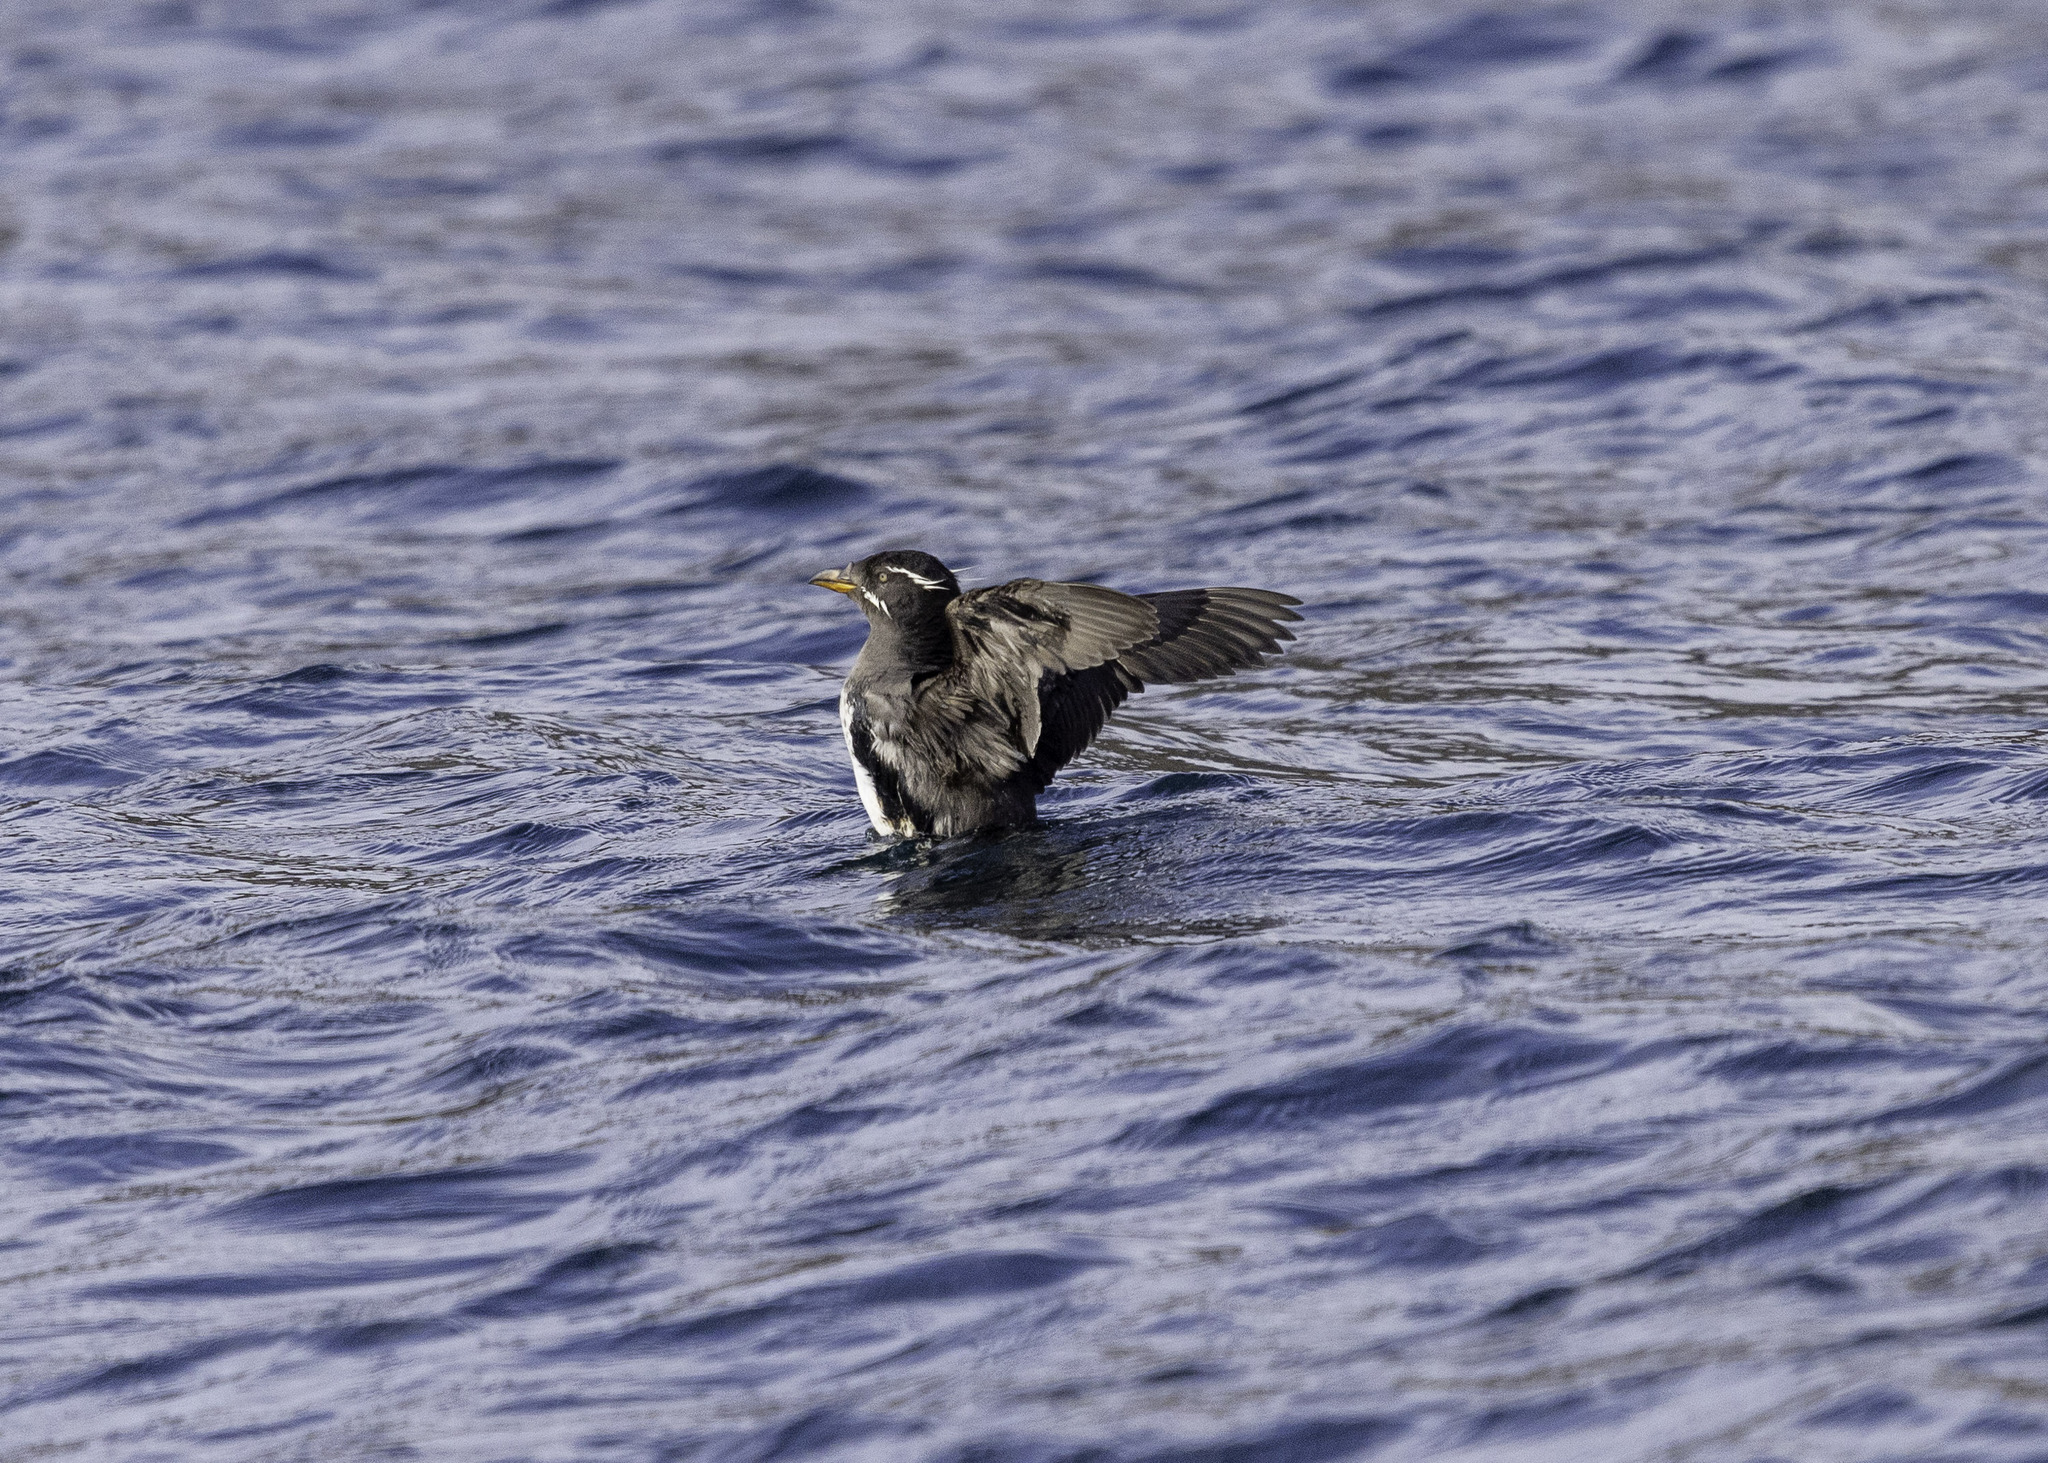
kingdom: Animalia
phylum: Chordata
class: Aves
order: Charadriiformes
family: Alcidae
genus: Cerorhinca
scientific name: Cerorhinca monocerata
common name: Rhinoceros auklet
